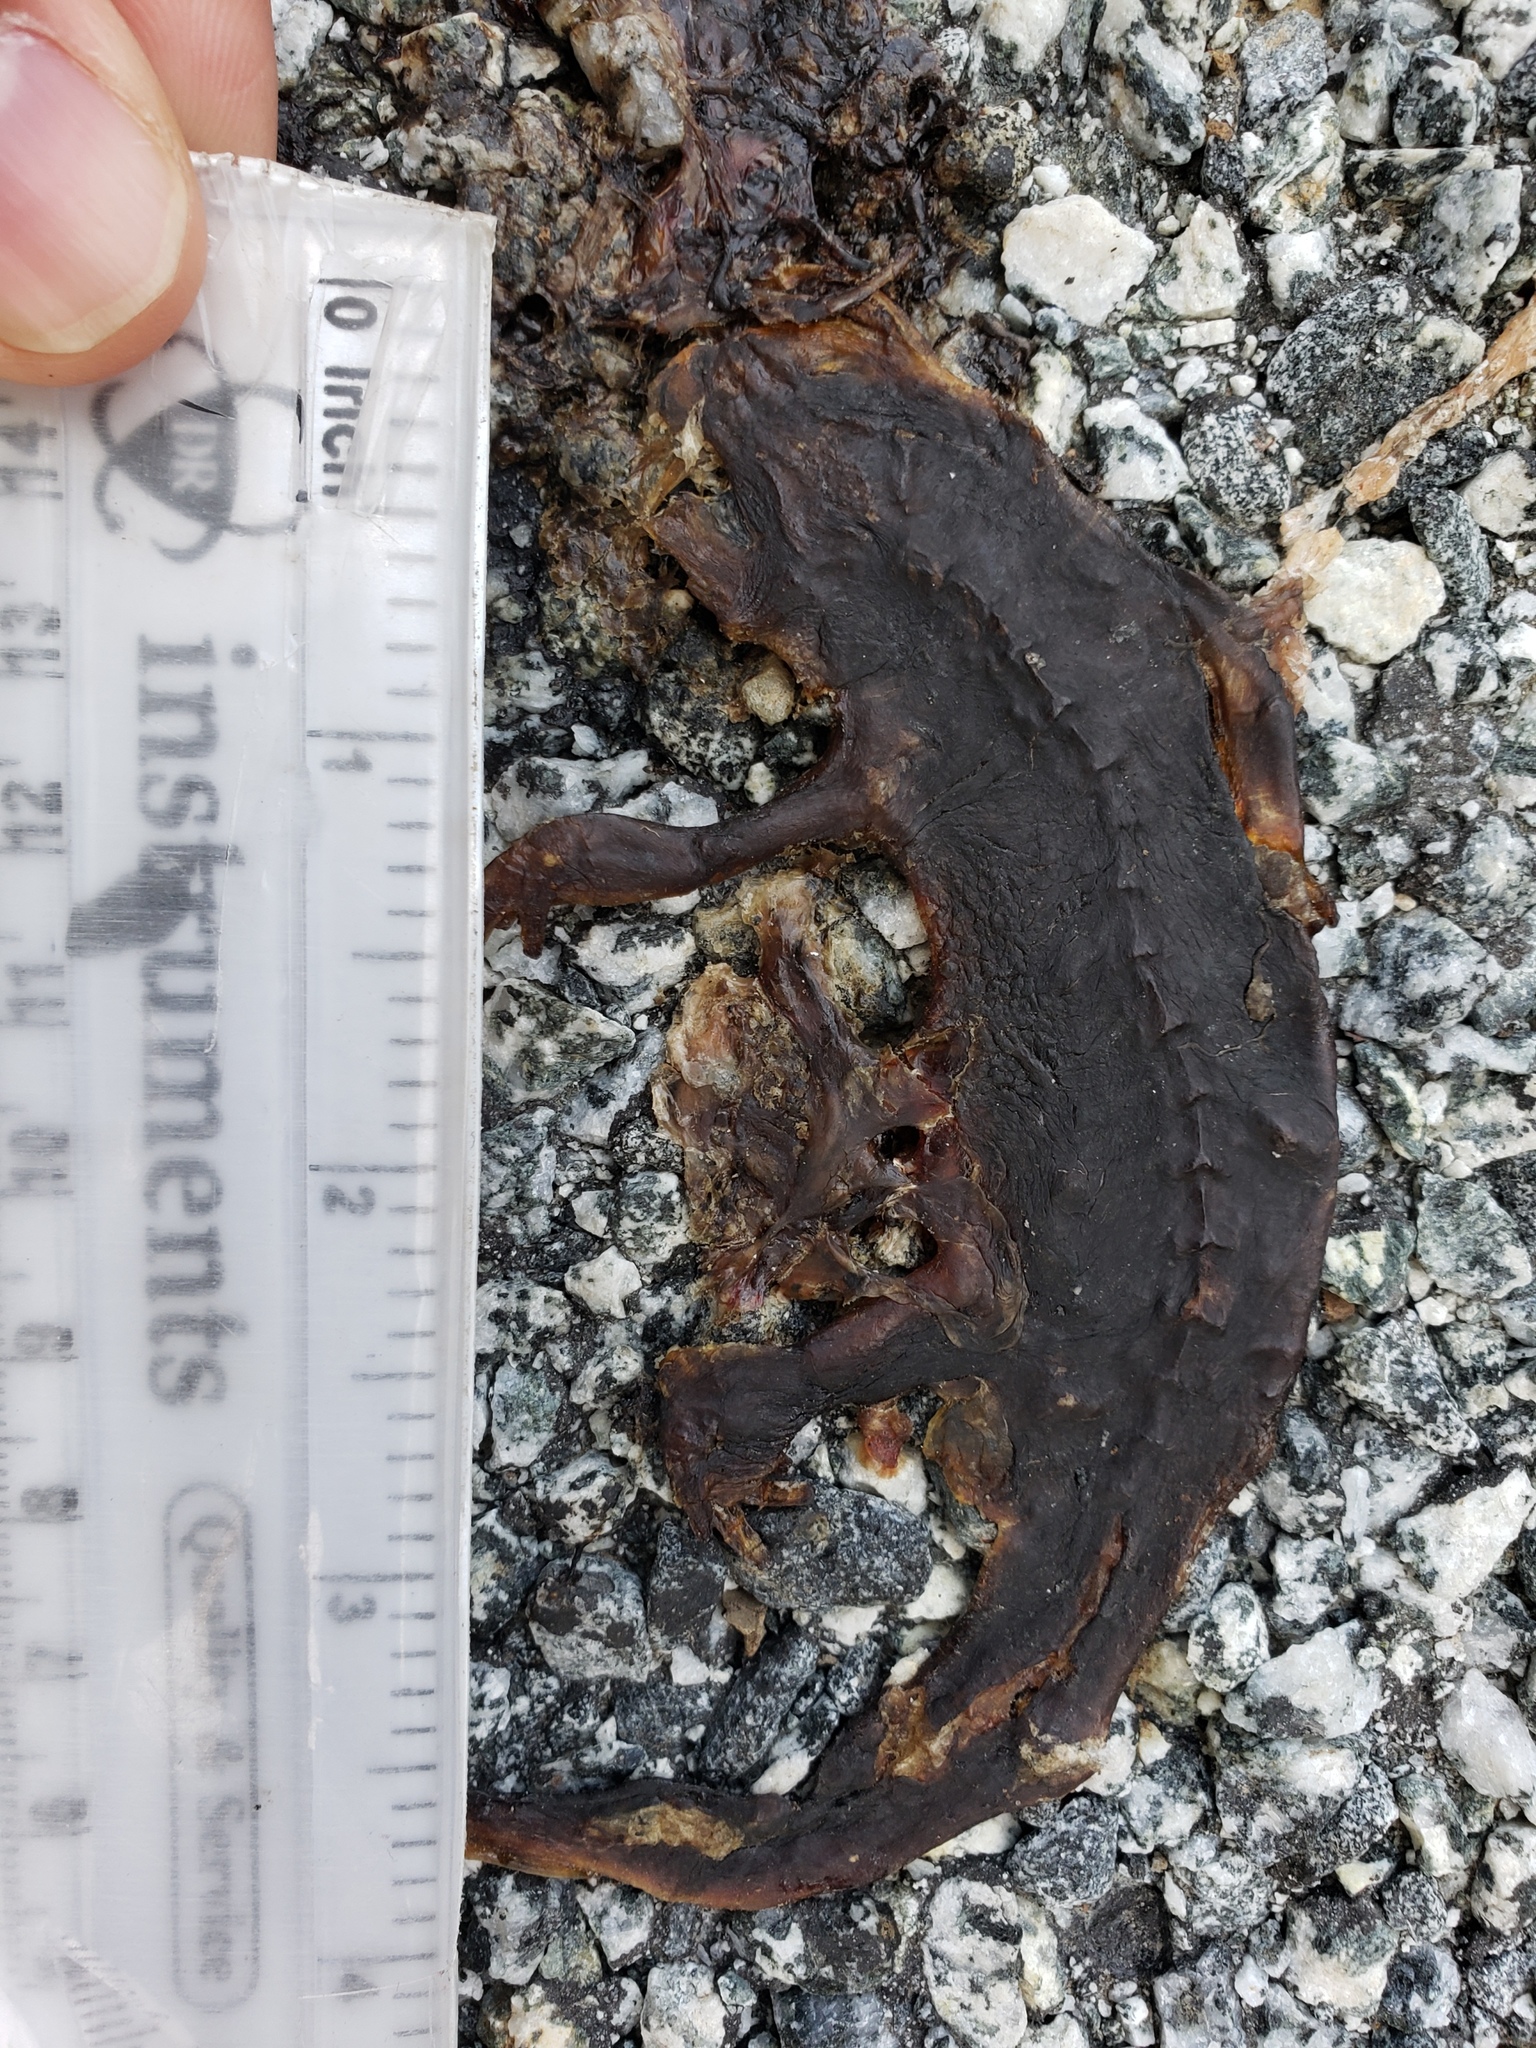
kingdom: Animalia
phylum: Chordata
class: Amphibia
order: Caudata
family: Salamandridae
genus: Taricha
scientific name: Taricha
